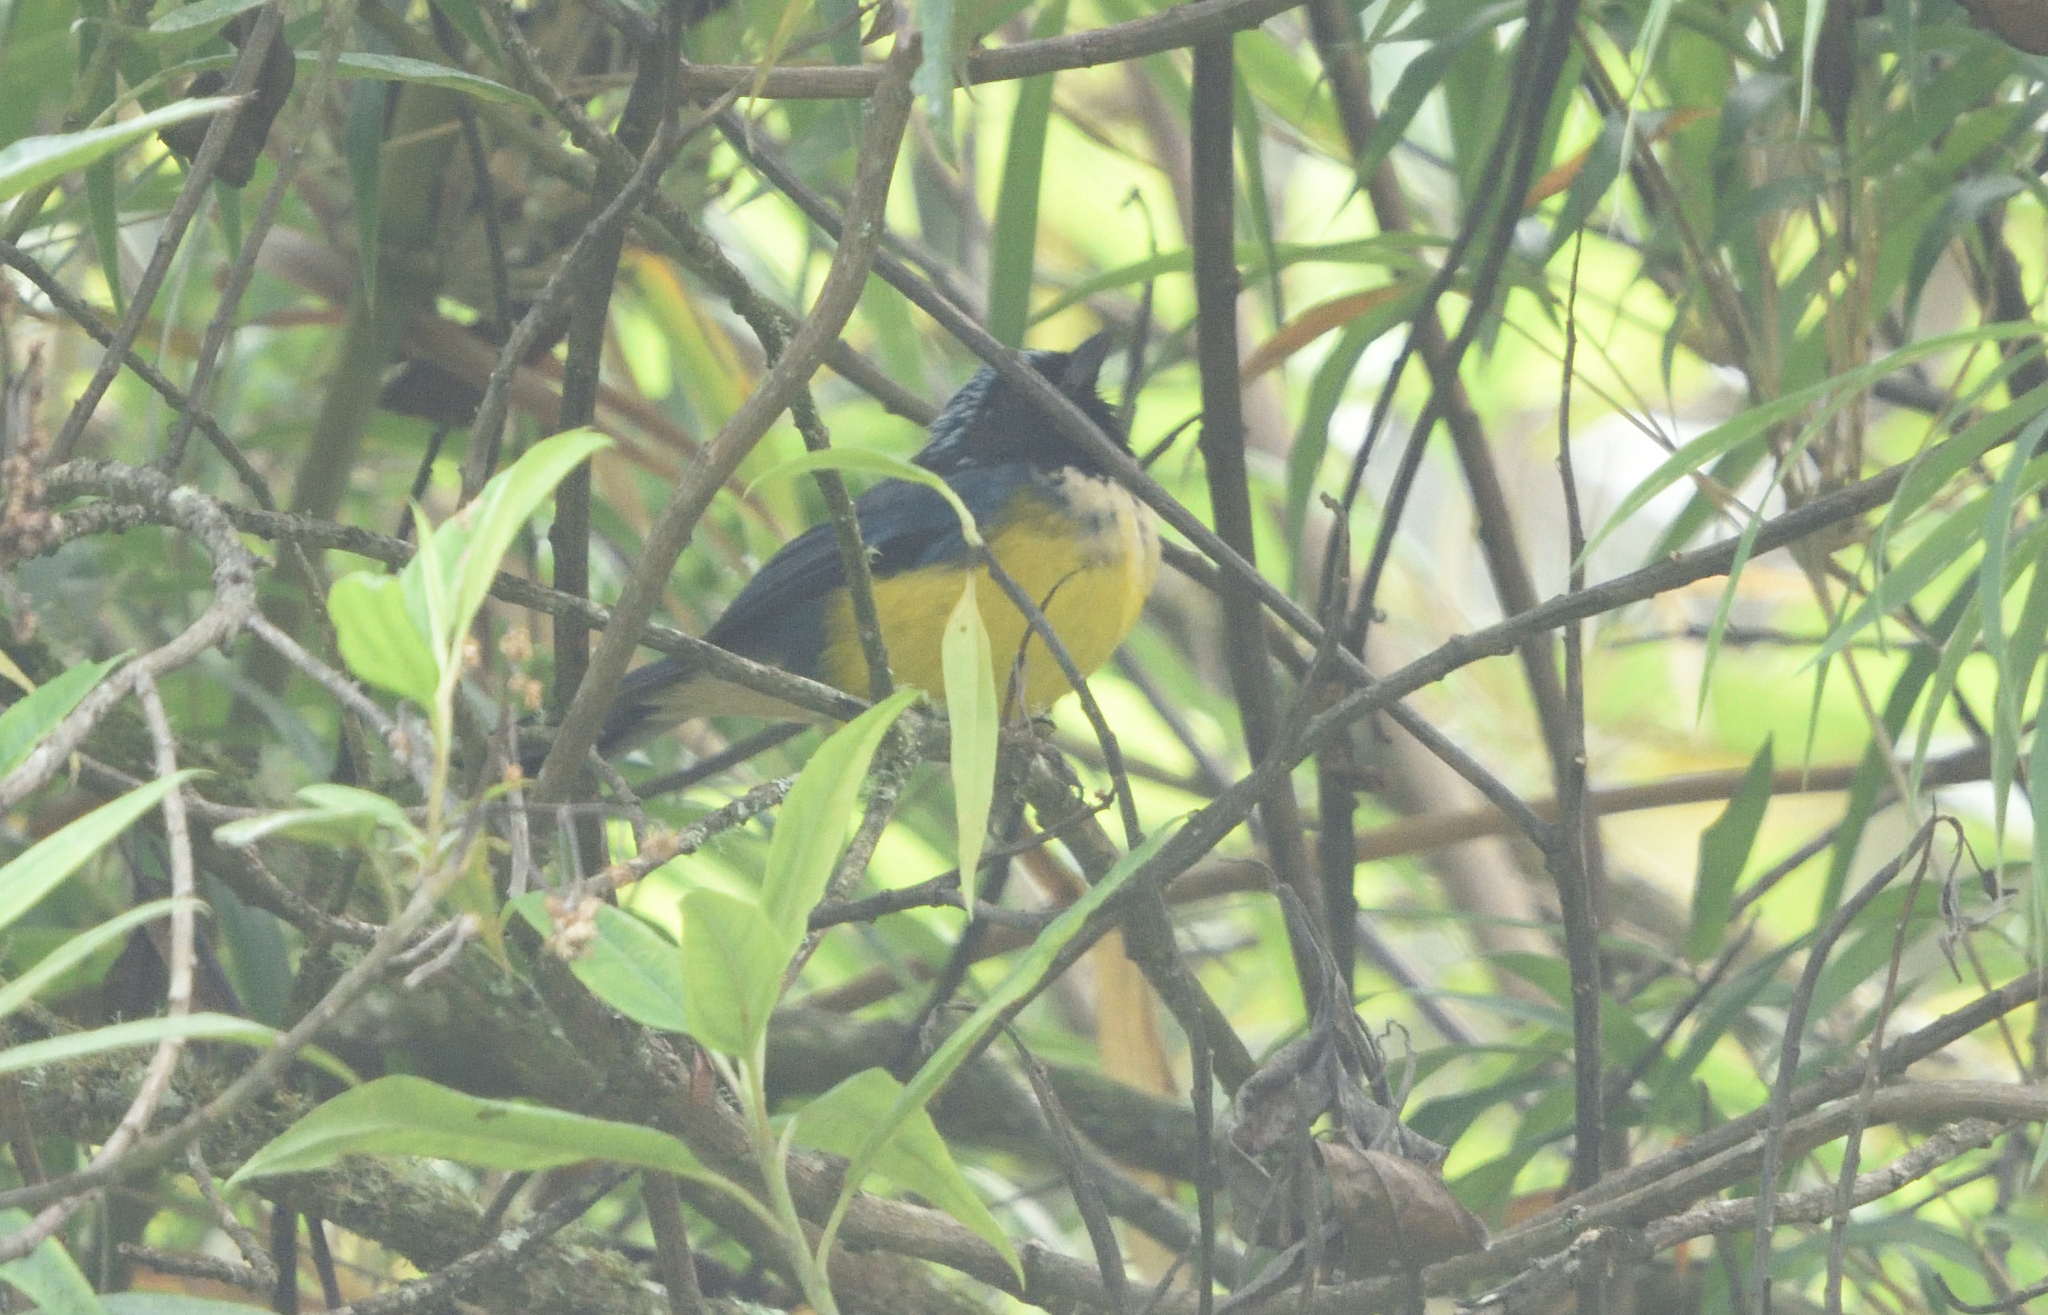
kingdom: Animalia
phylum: Chordata
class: Aves
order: Passeriformes
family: Thraupidae
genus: Dubusia
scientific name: Dubusia taeniata
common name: Buff-breasted mountain tanager
